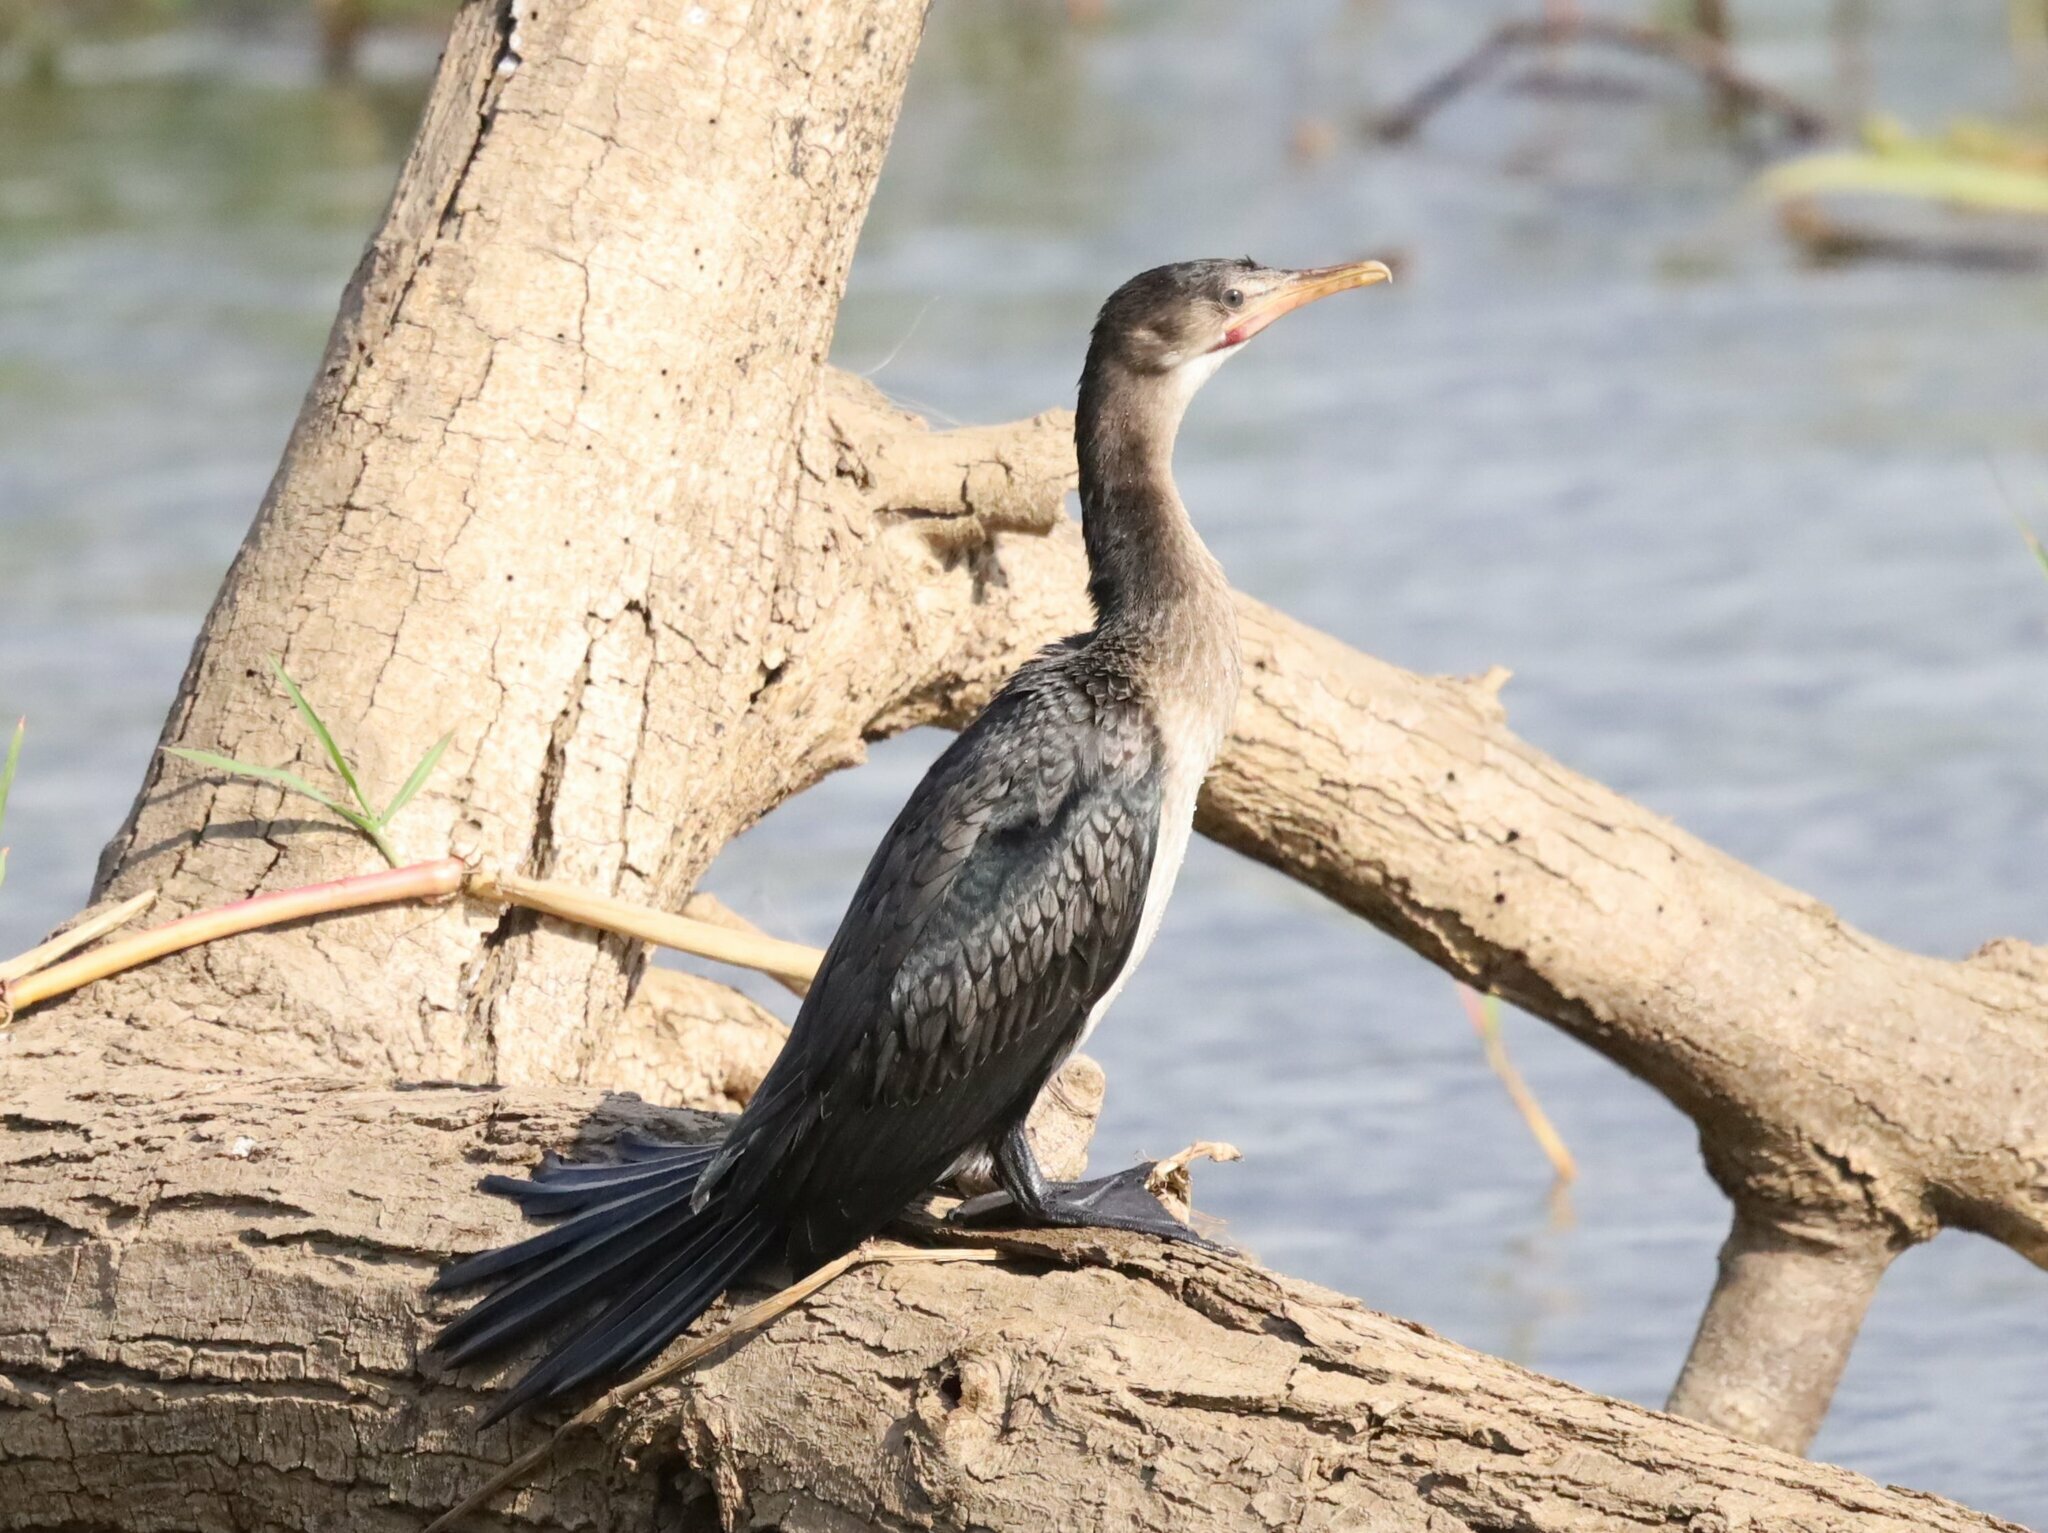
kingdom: Animalia
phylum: Chordata
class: Aves
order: Suliformes
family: Phalacrocoracidae
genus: Microcarbo
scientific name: Microcarbo africanus
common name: Long-tailed cormorant
